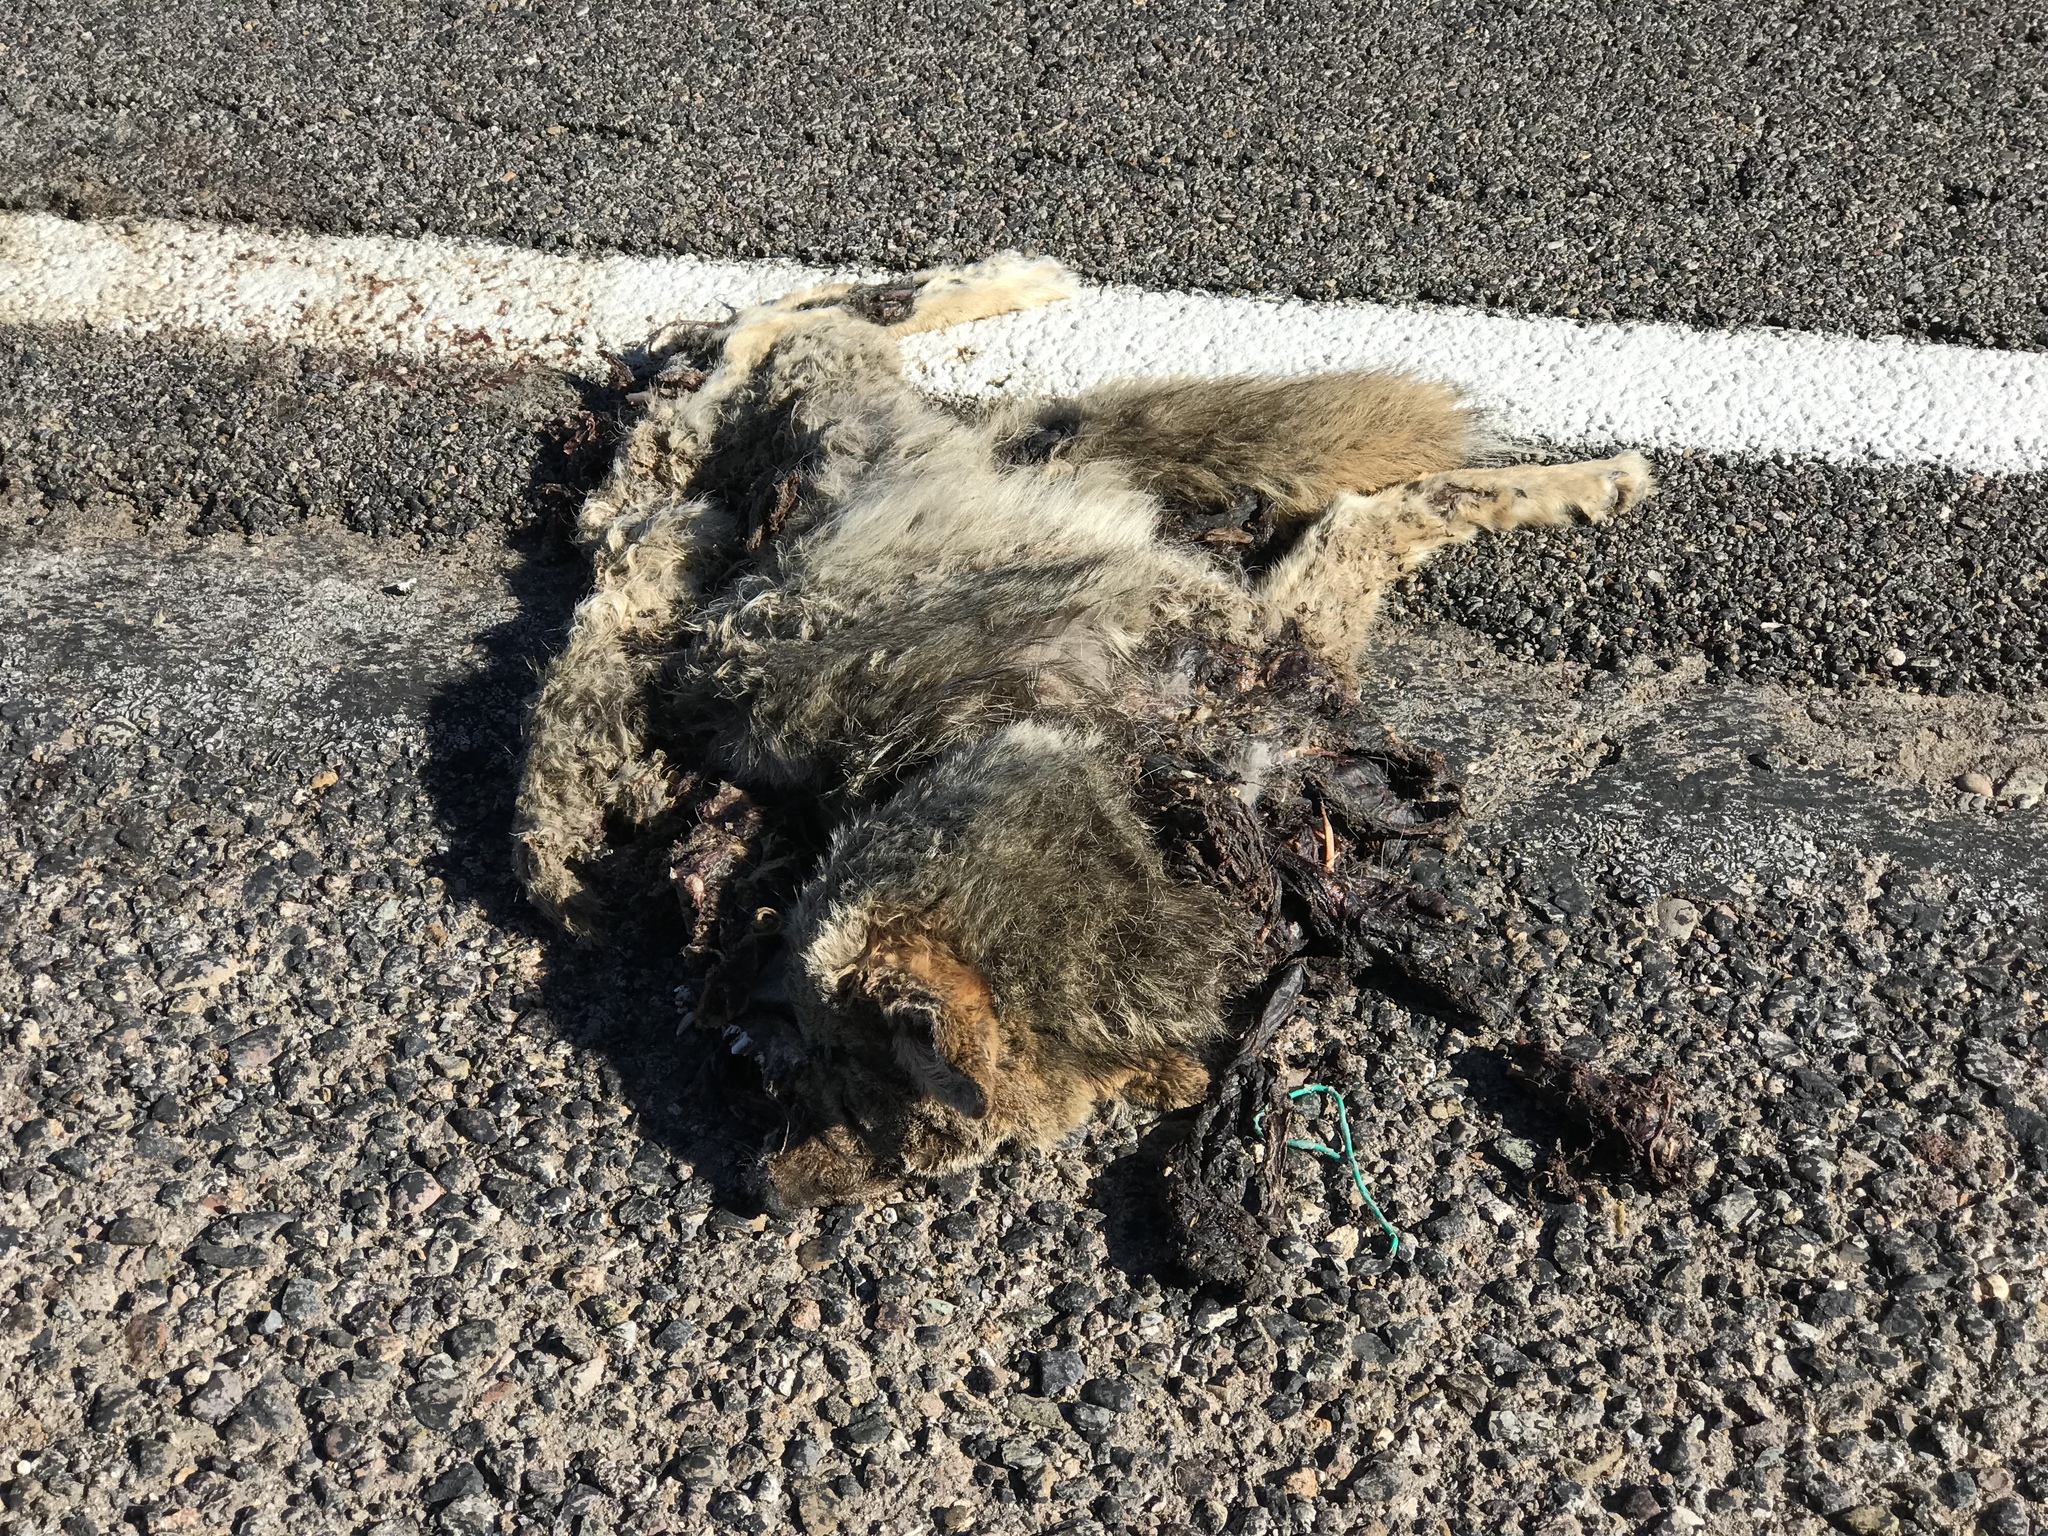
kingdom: Animalia
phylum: Chordata
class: Mammalia
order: Carnivora
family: Canidae
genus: Canis
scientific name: Canis latrans
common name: Coyote
